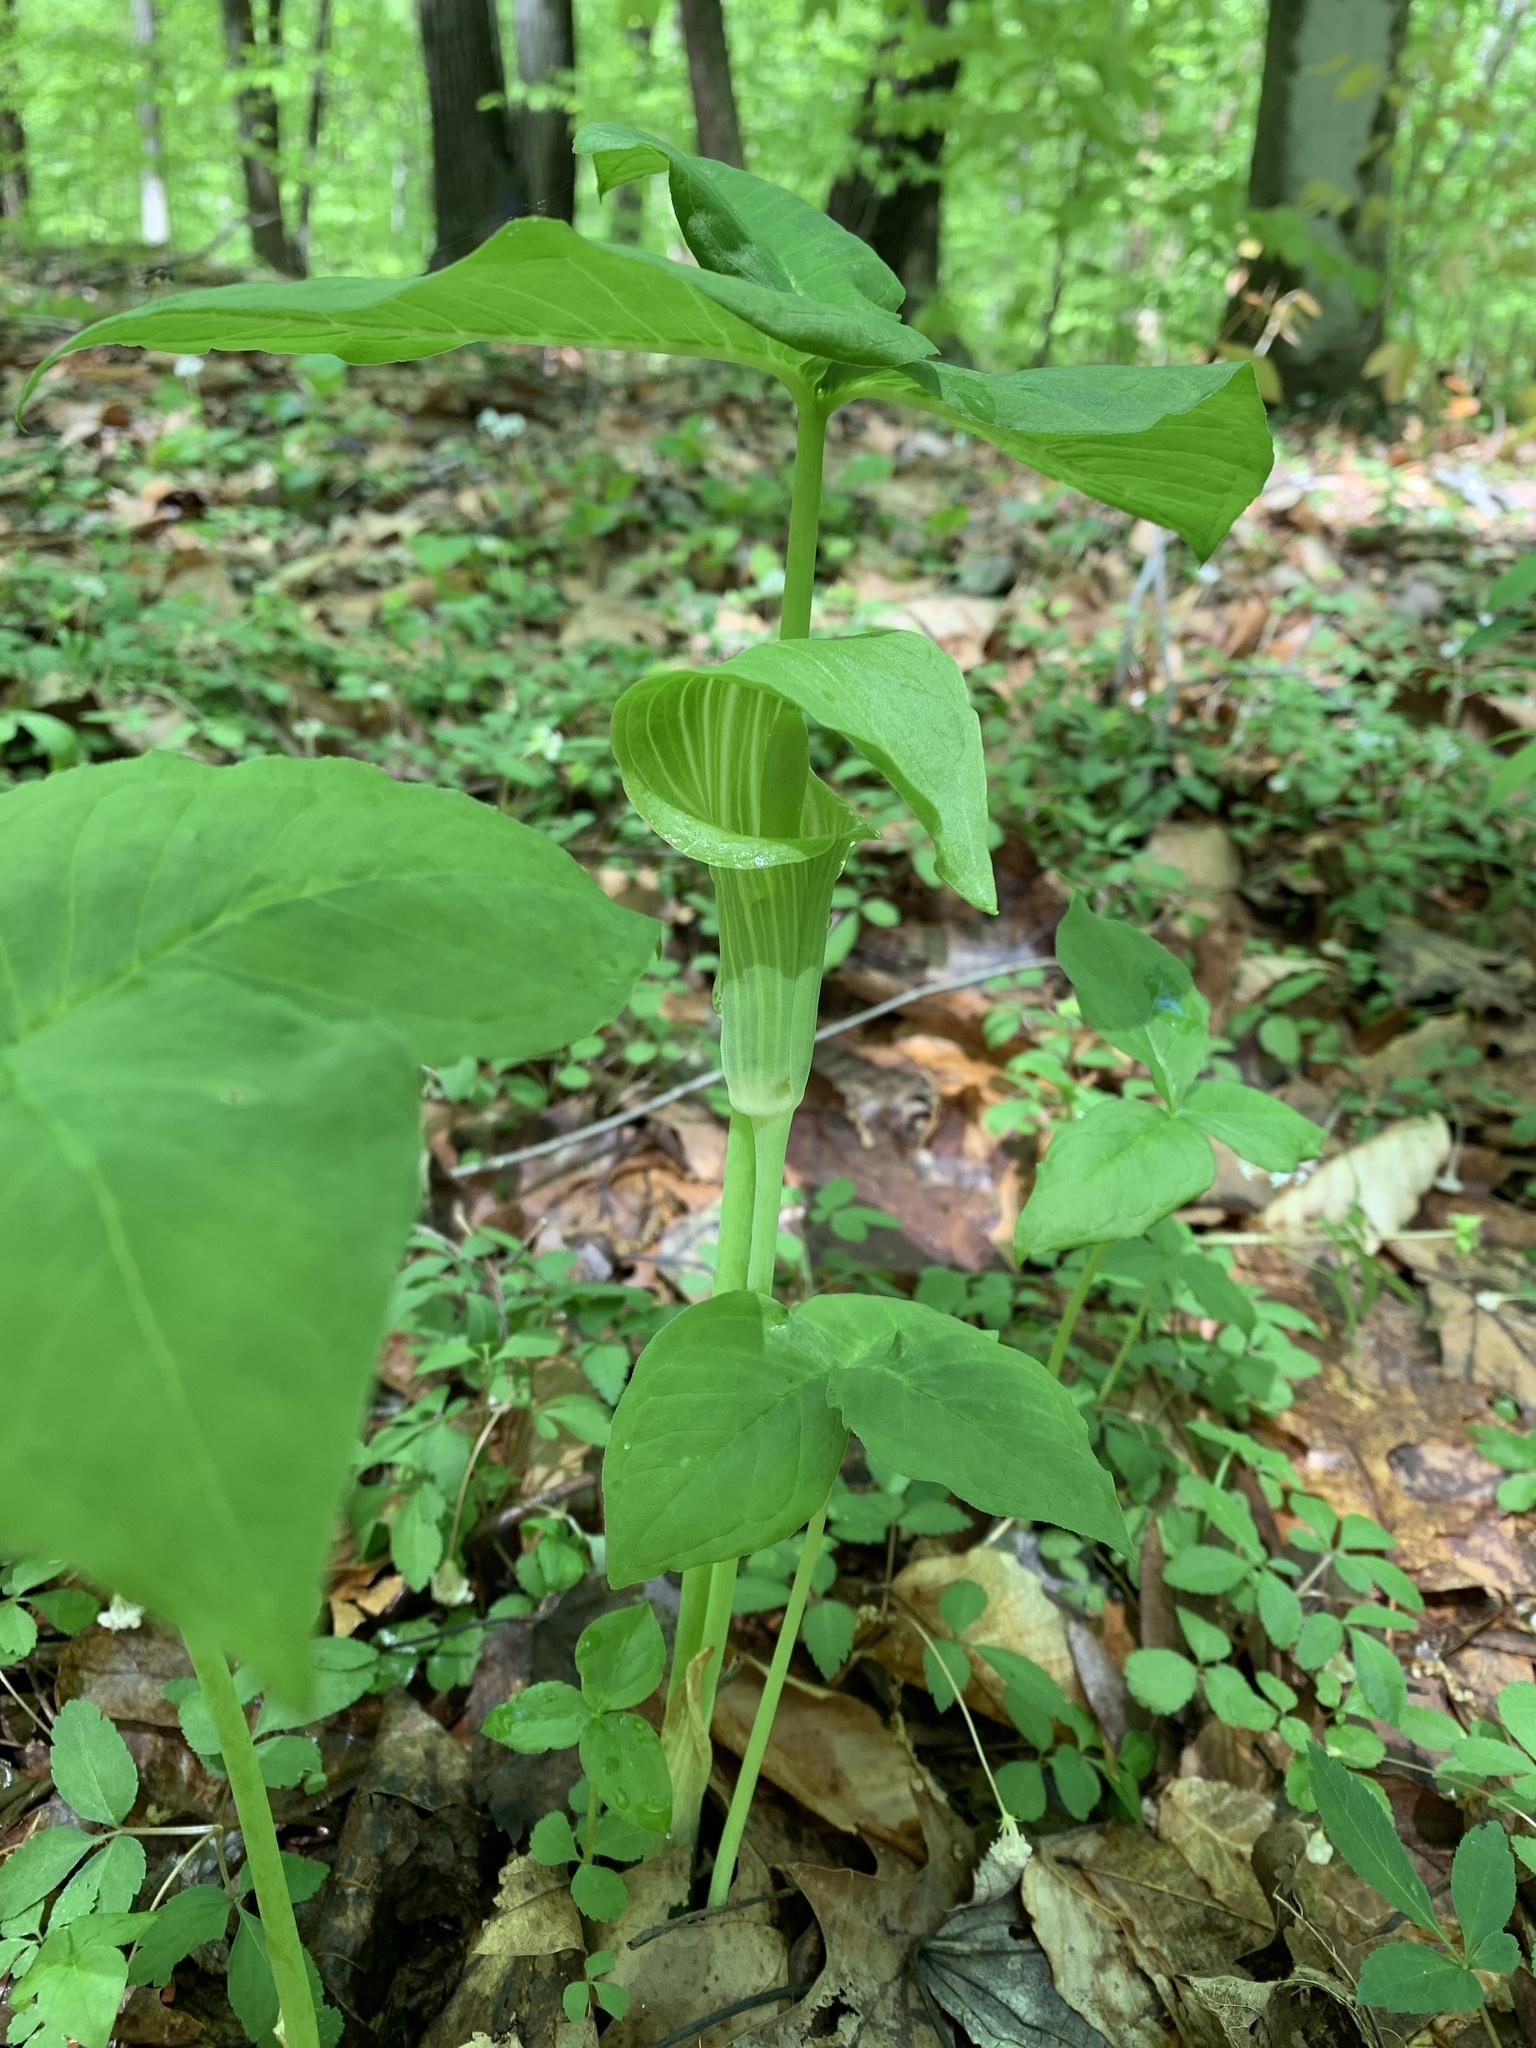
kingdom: Plantae
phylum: Tracheophyta
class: Liliopsida
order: Alismatales
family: Araceae
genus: Arisaema
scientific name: Arisaema triphyllum
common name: Jack-in-the-pulpit
